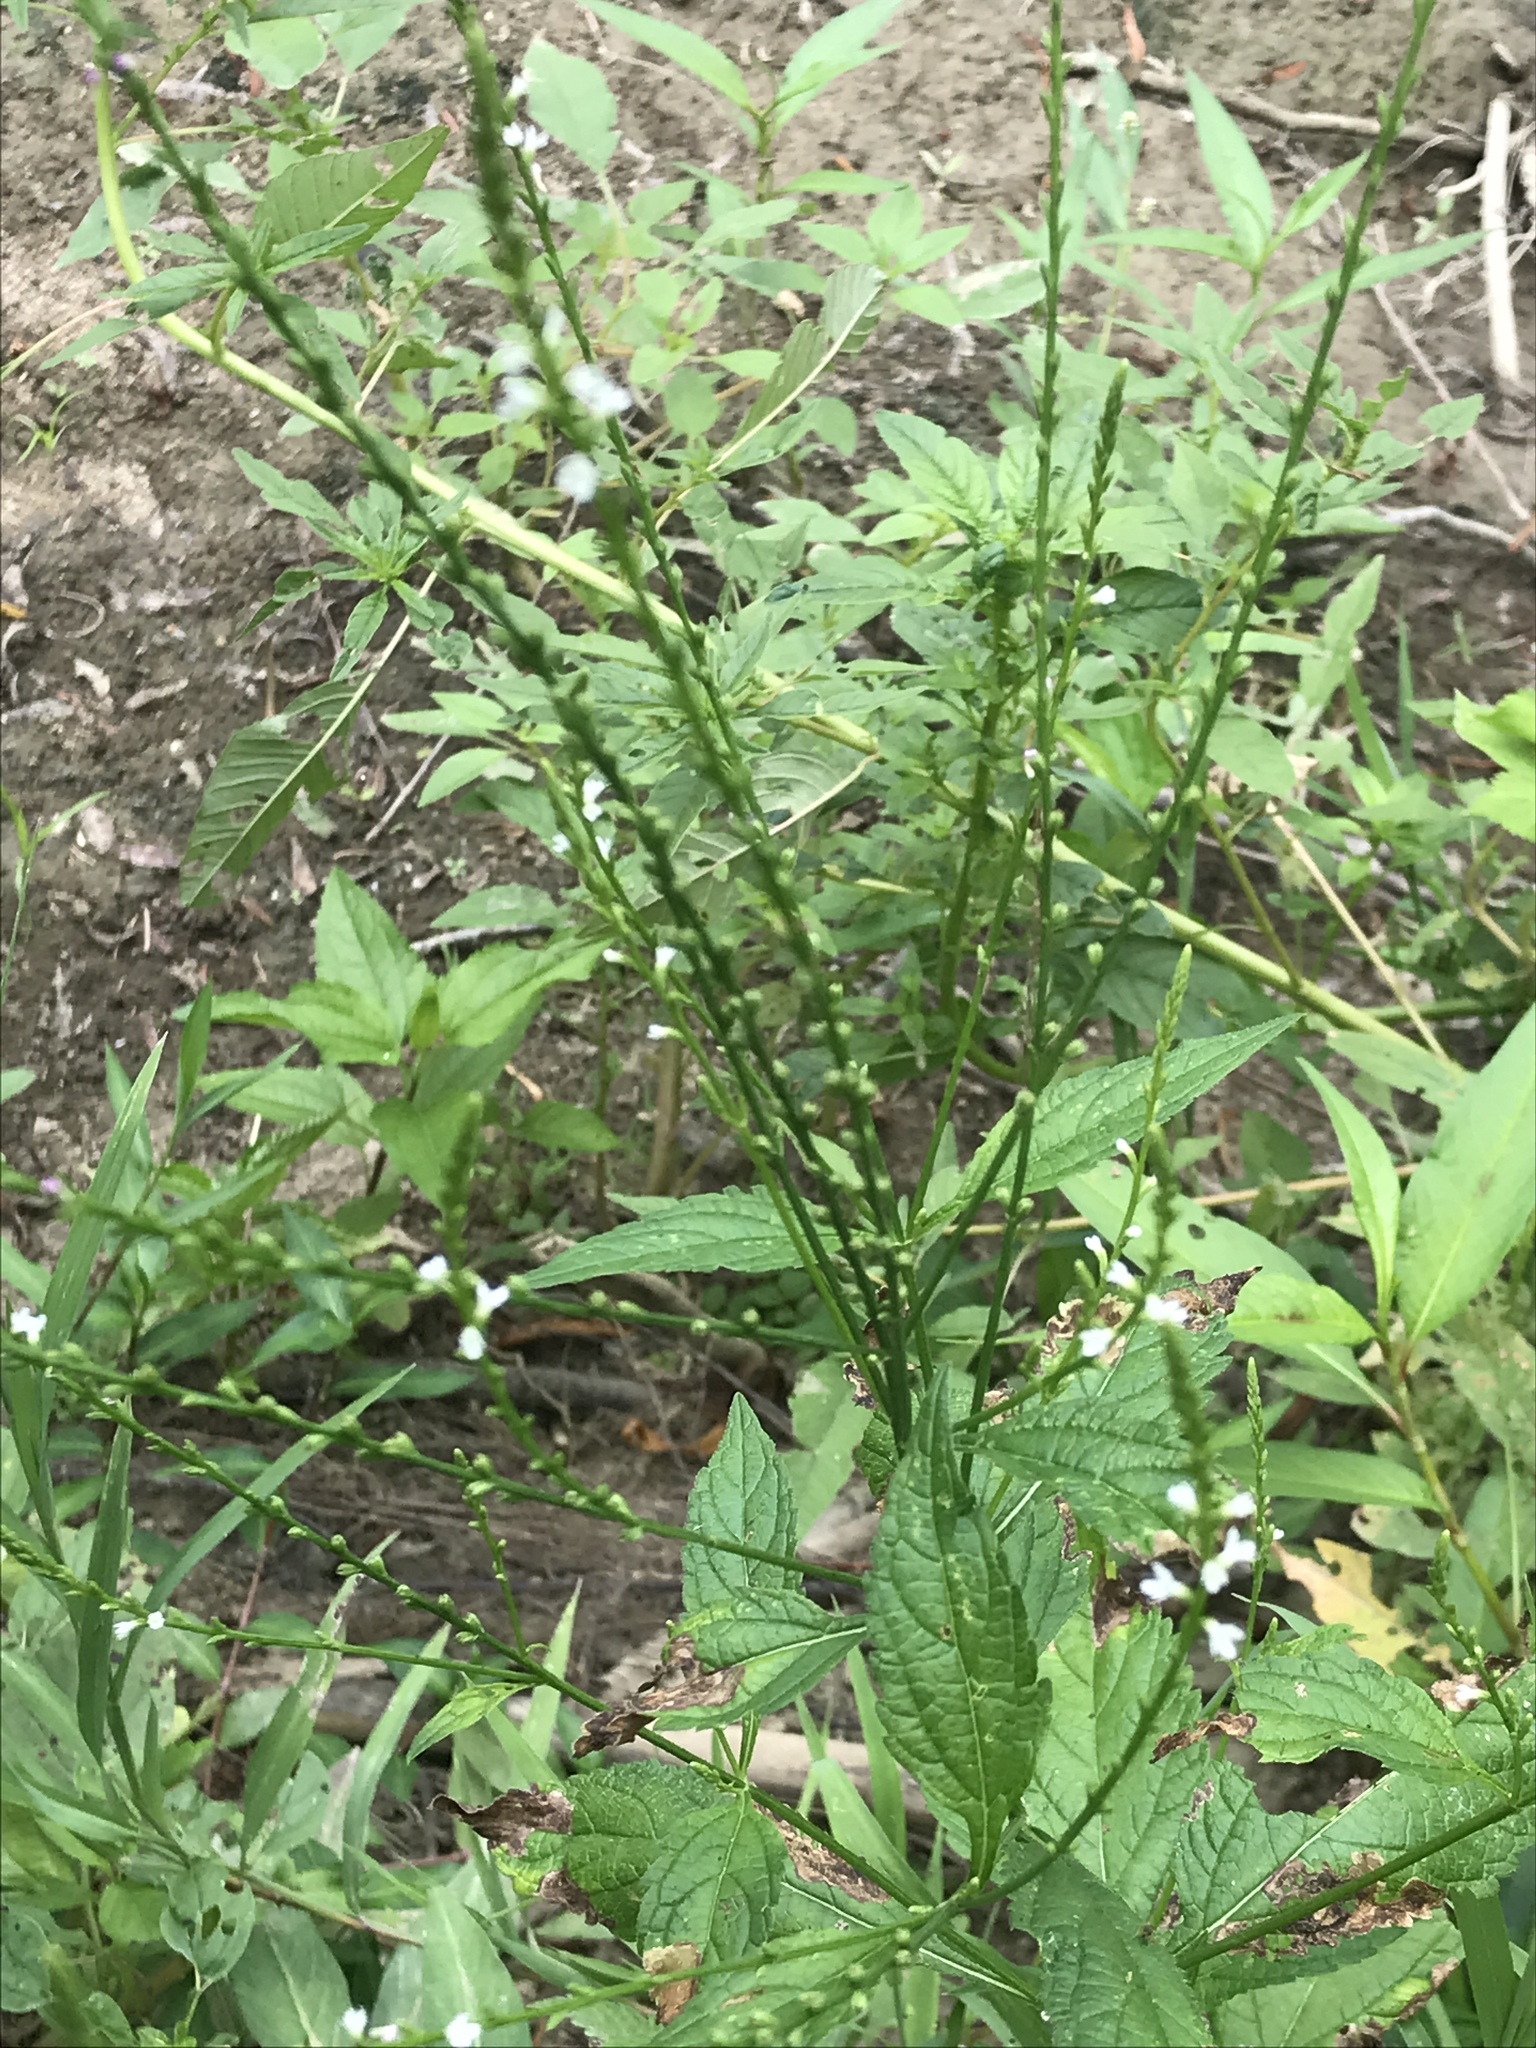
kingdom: Plantae
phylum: Tracheophyta
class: Magnoliopsida
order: Lamiales
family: Verbenaceae
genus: Verbena
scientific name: Verbena urticifolia
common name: Nettle-leaved vervain
